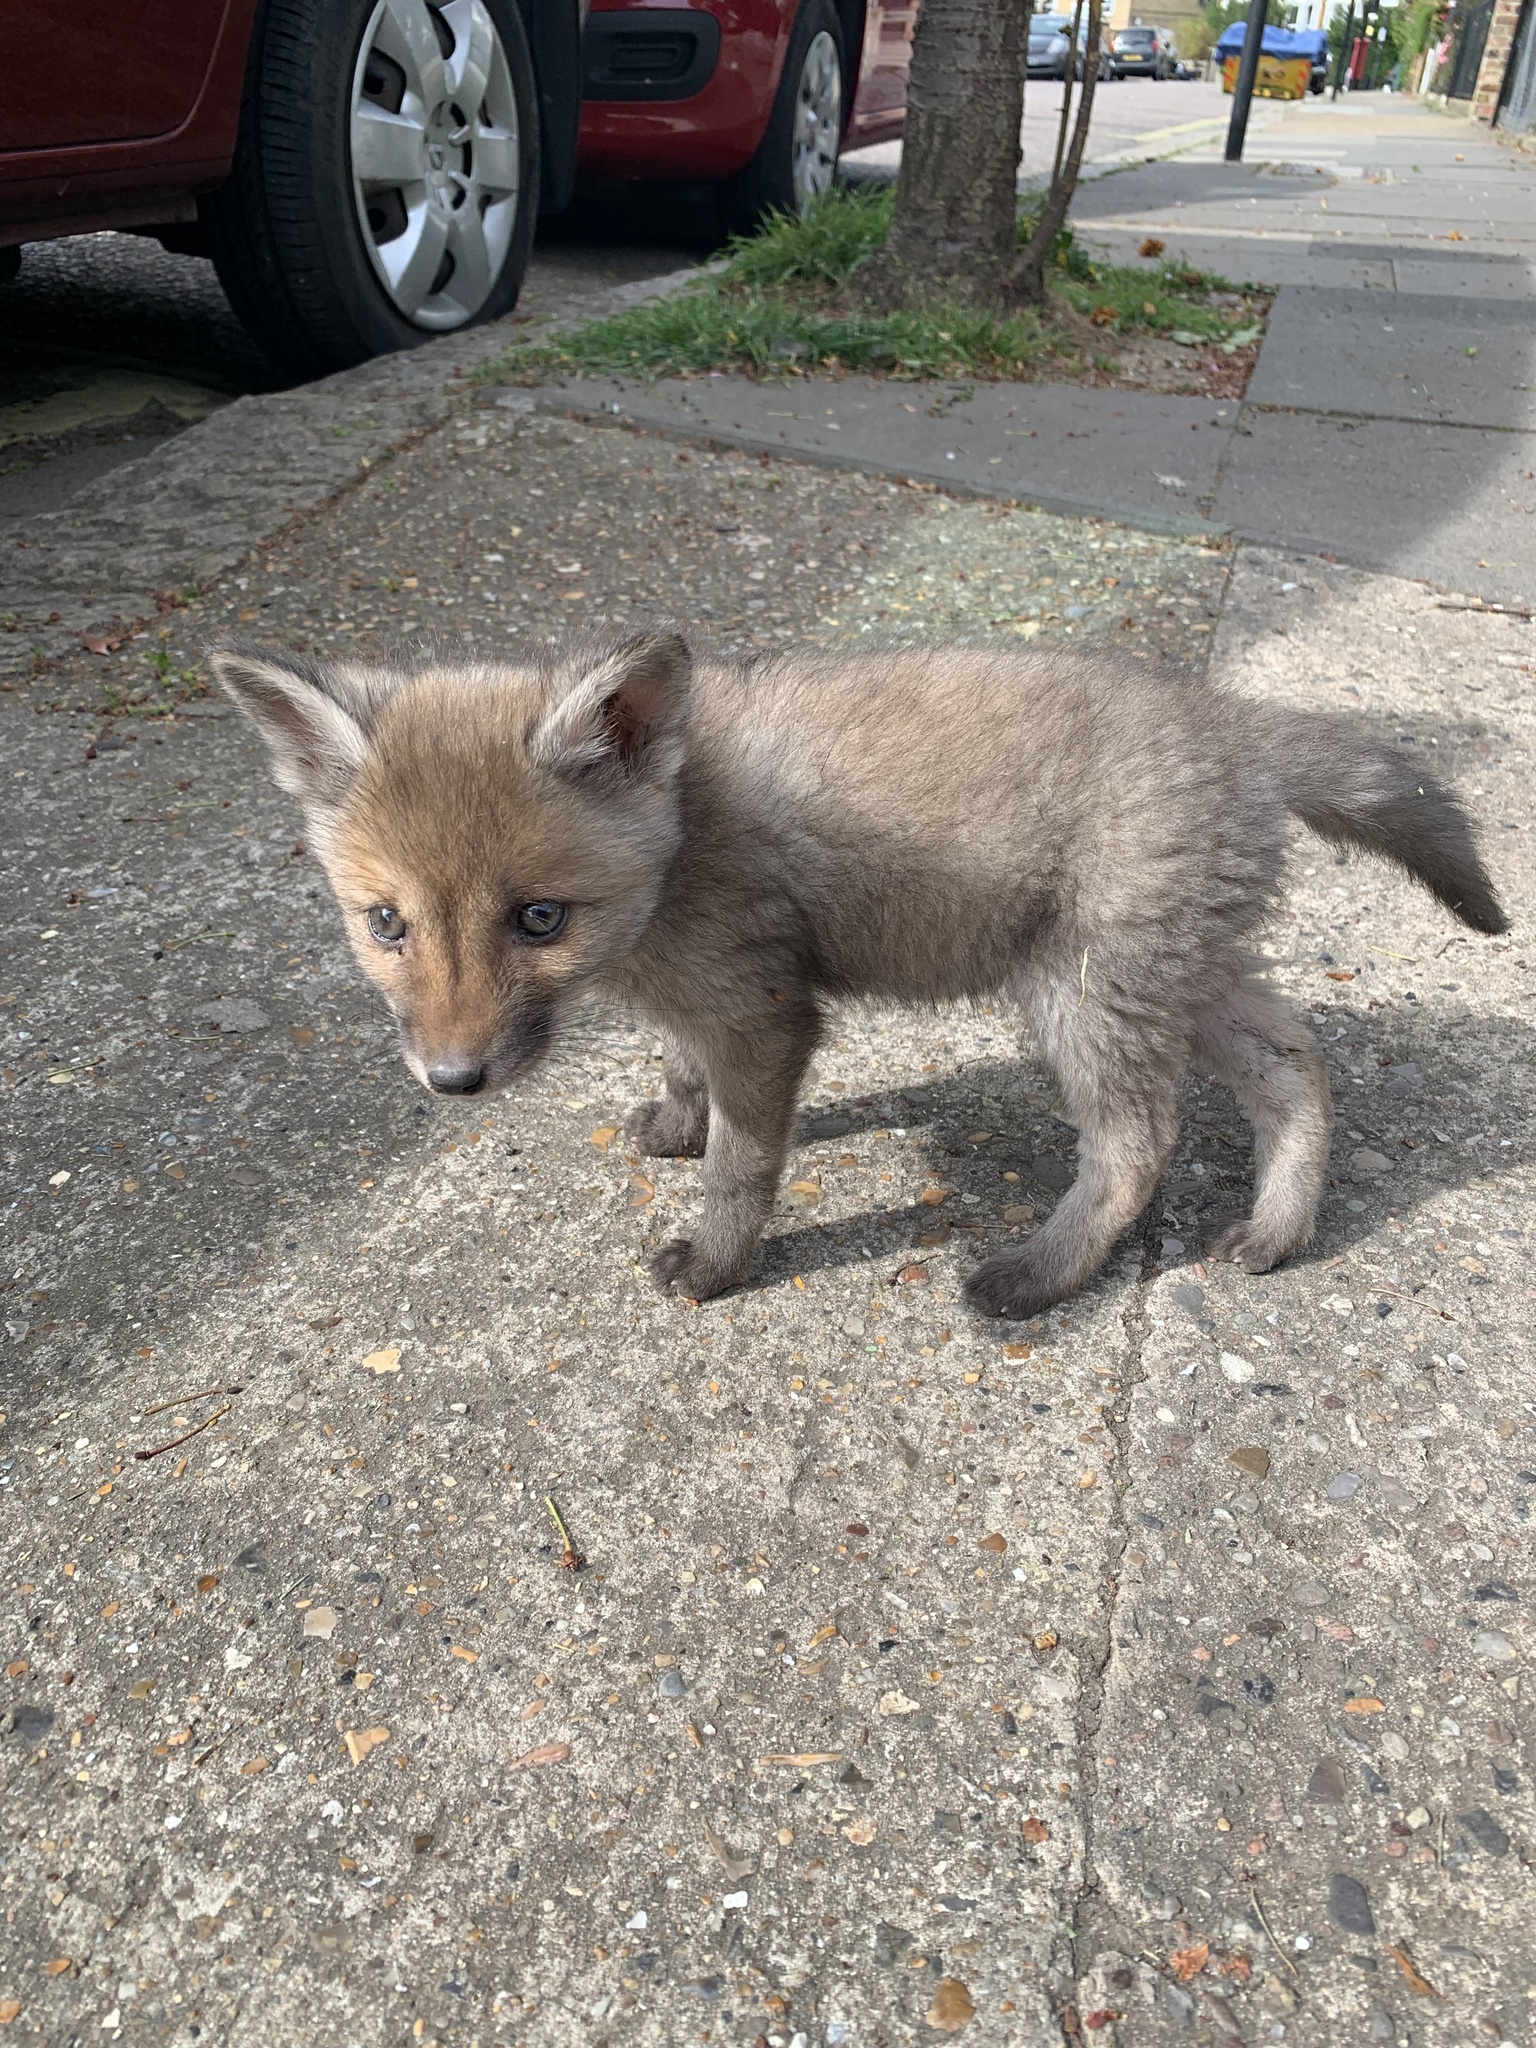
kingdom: Animalia
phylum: Chordata
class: Mammalia
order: Carnivora
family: Canidae
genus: Vulpes
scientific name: Vulpes vulpes
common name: Red fox
